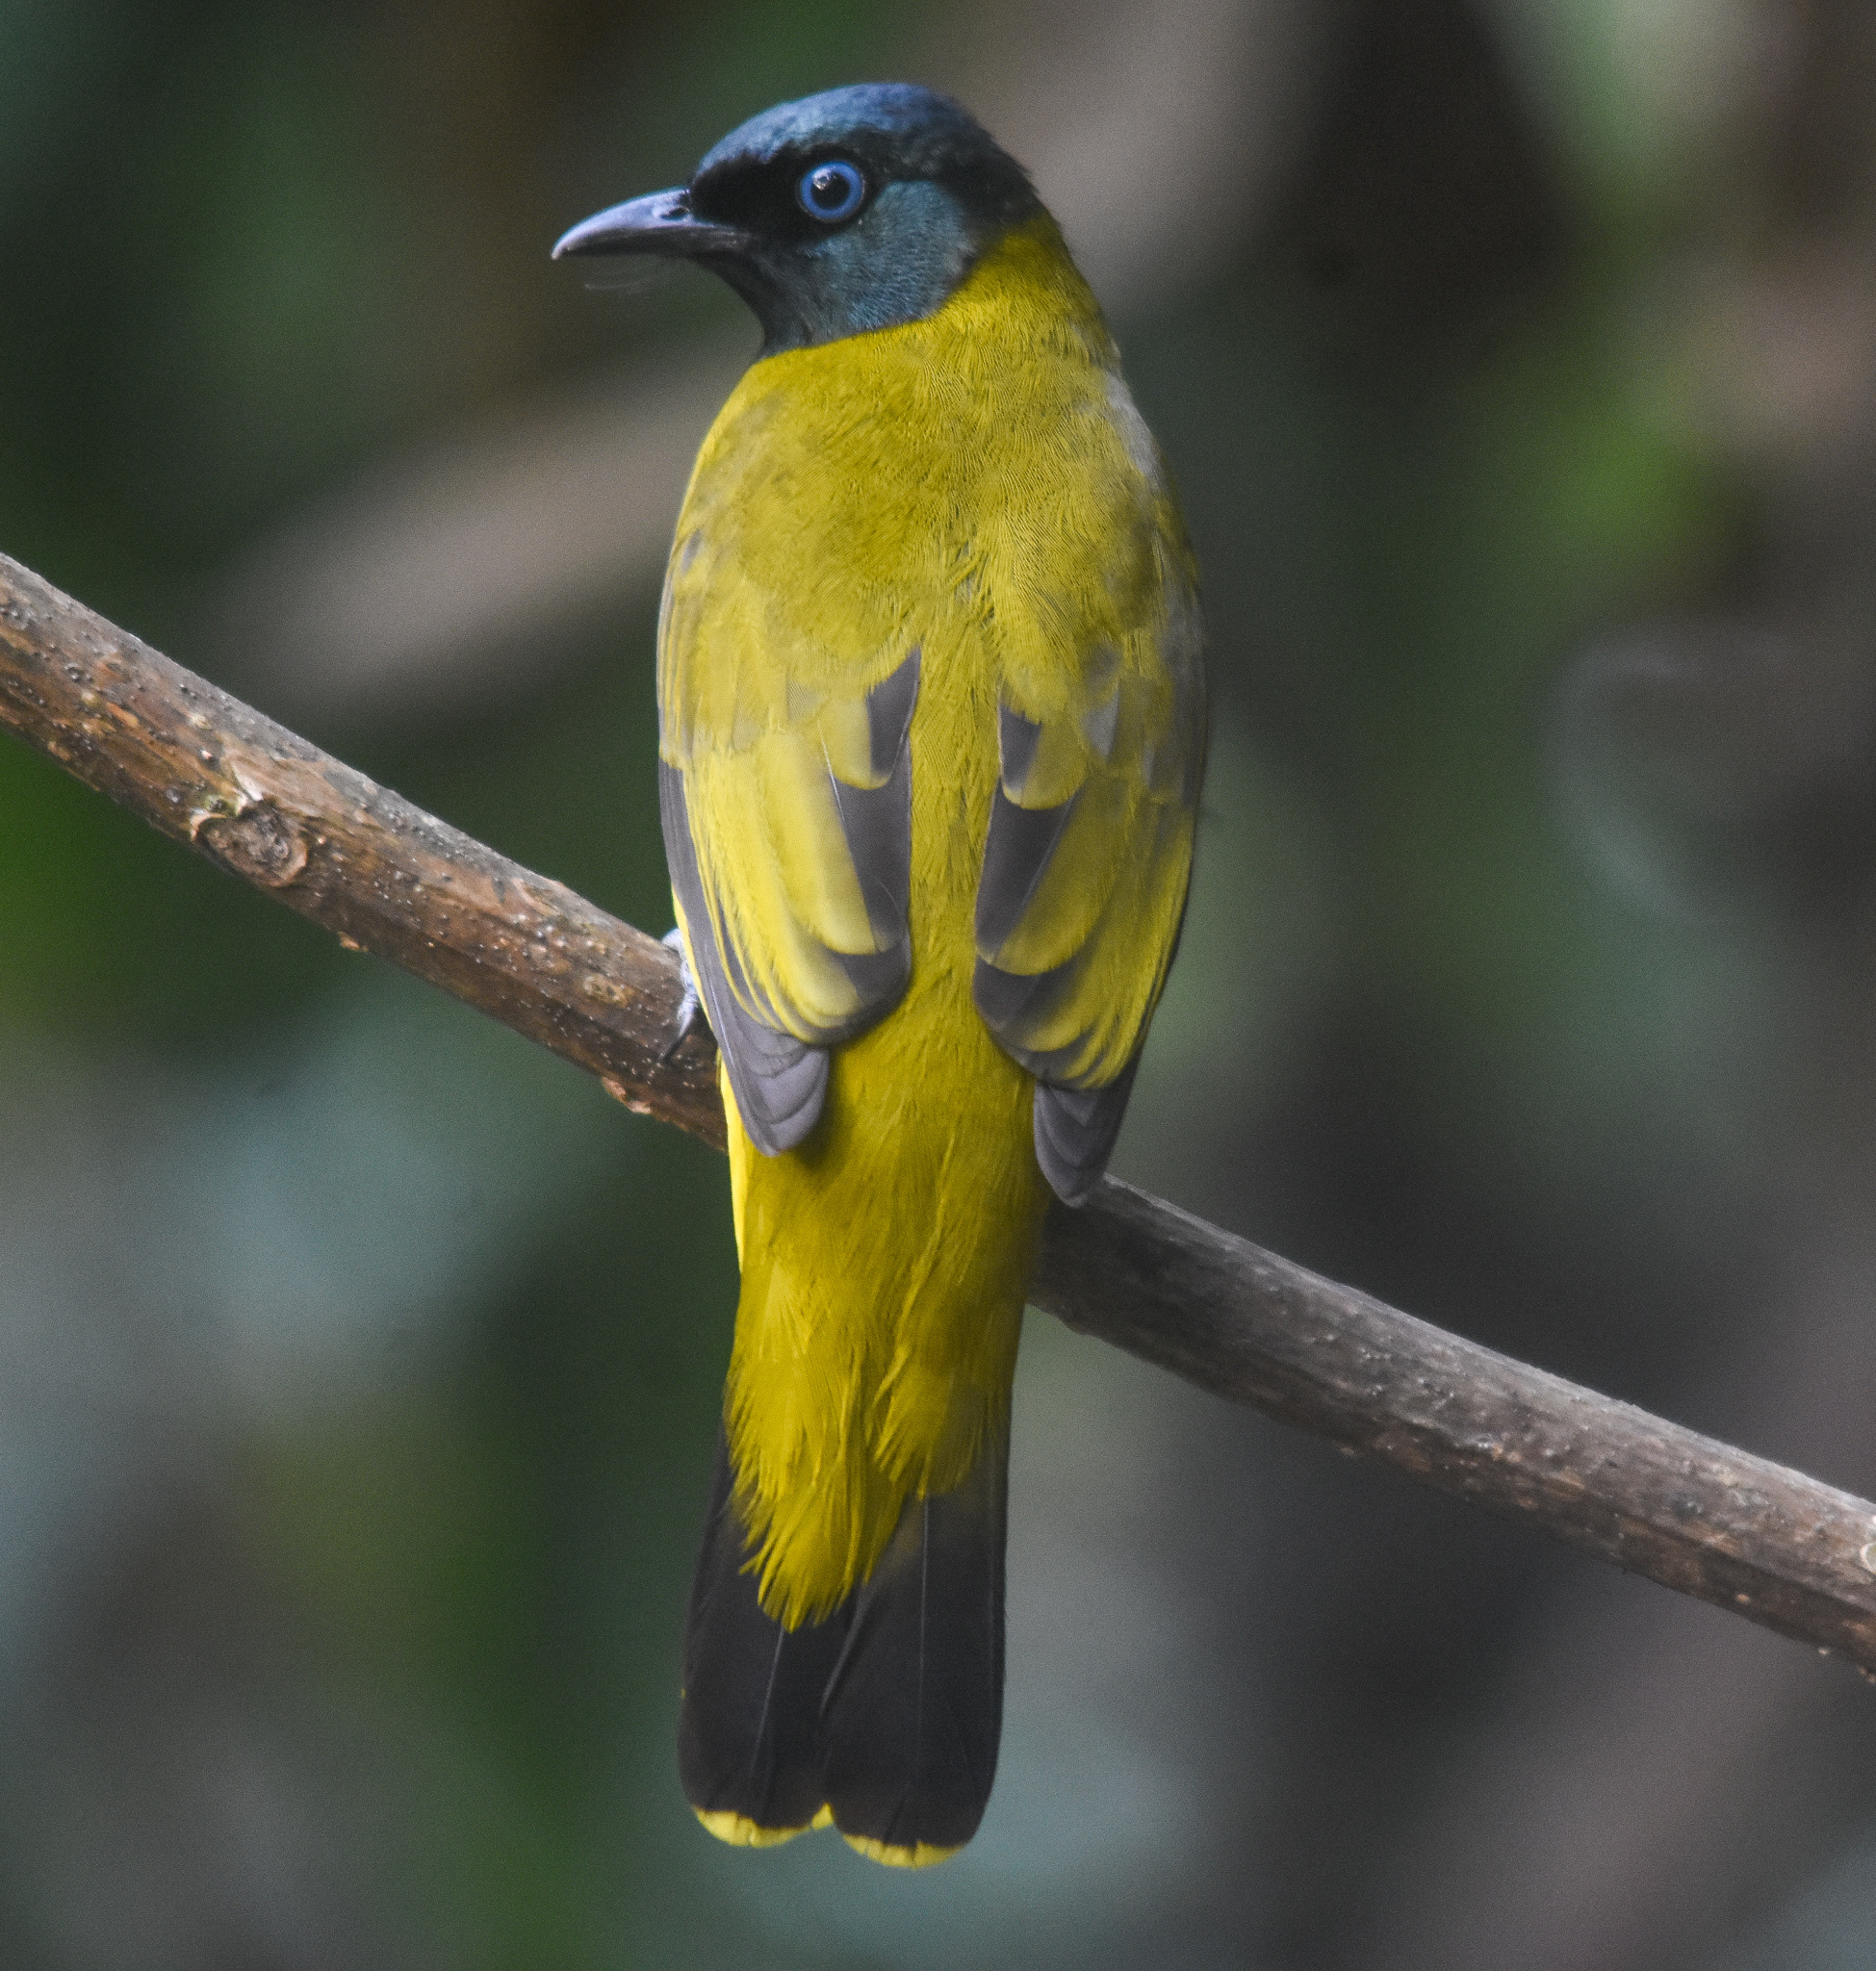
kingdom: Animalia
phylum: Chordata
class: Aves
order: Passeriformes
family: Pycnonotidae
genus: Microtarsus
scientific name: Microtarsus
